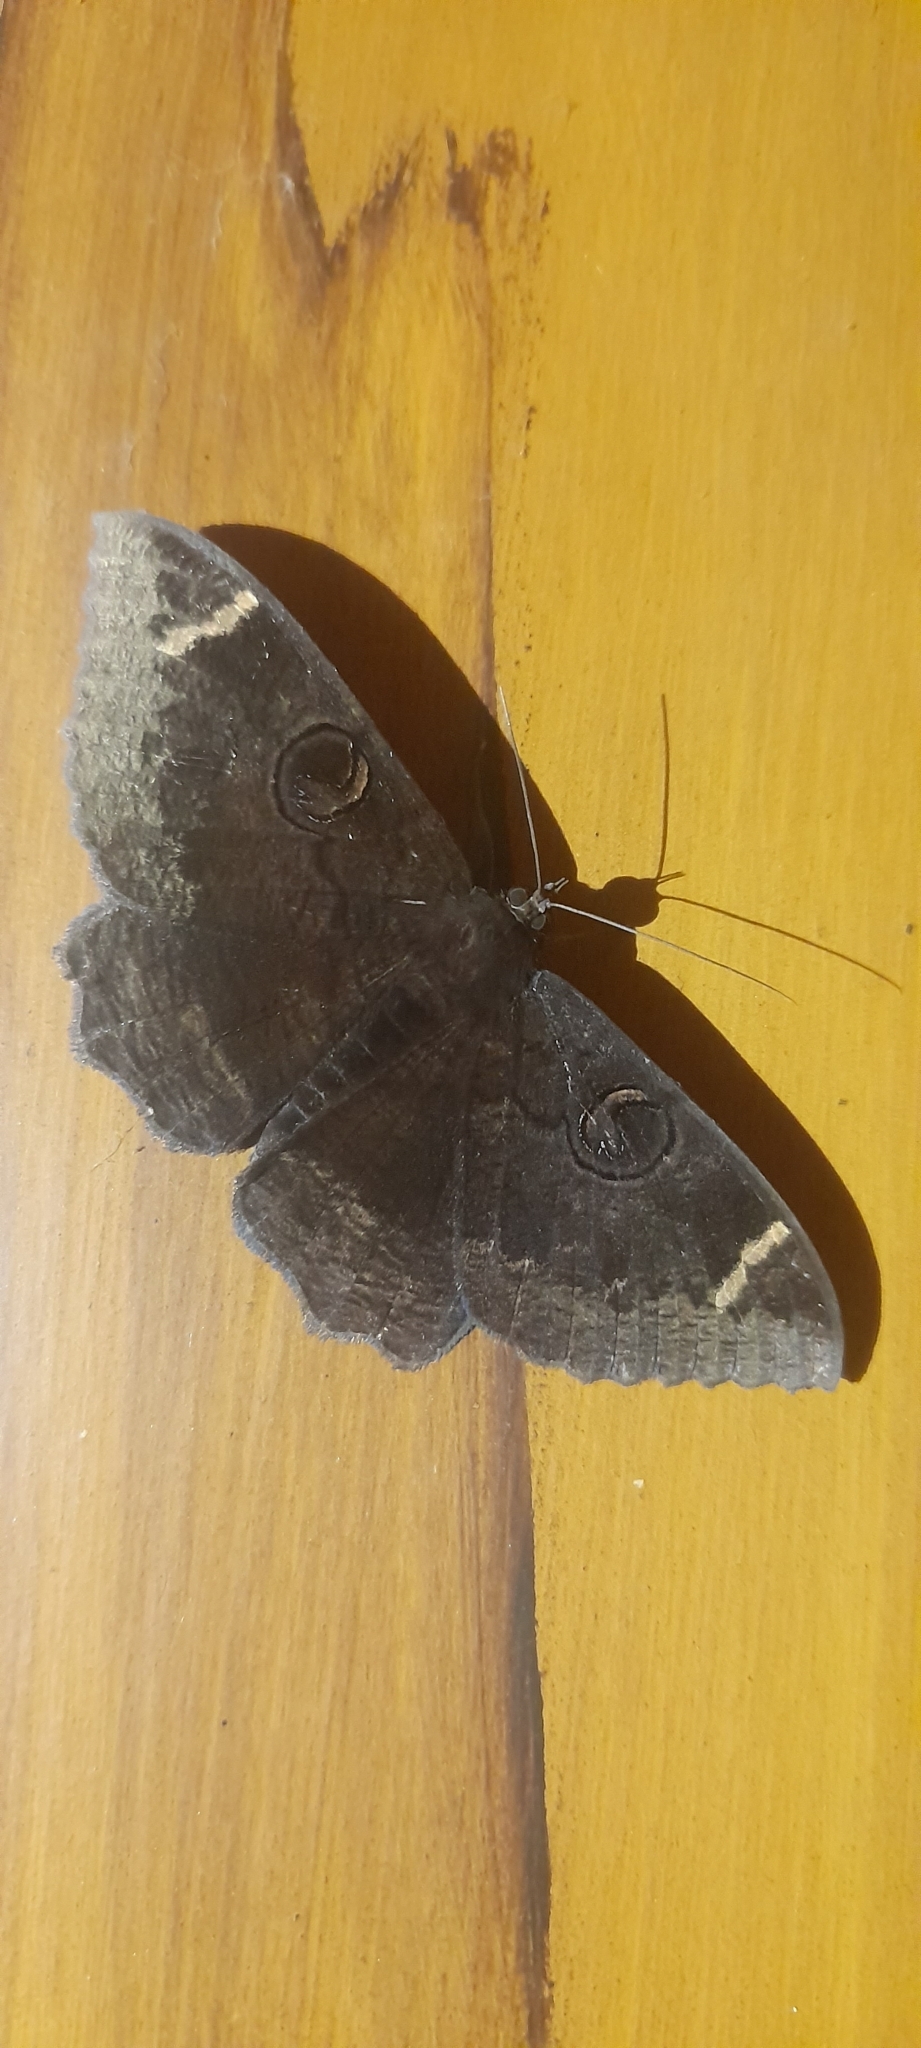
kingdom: Animalia
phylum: Arthropoda
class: Insecta
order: Lepidoptera
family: Erebidae
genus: Erebus
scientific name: Erebus hieroglyphica
